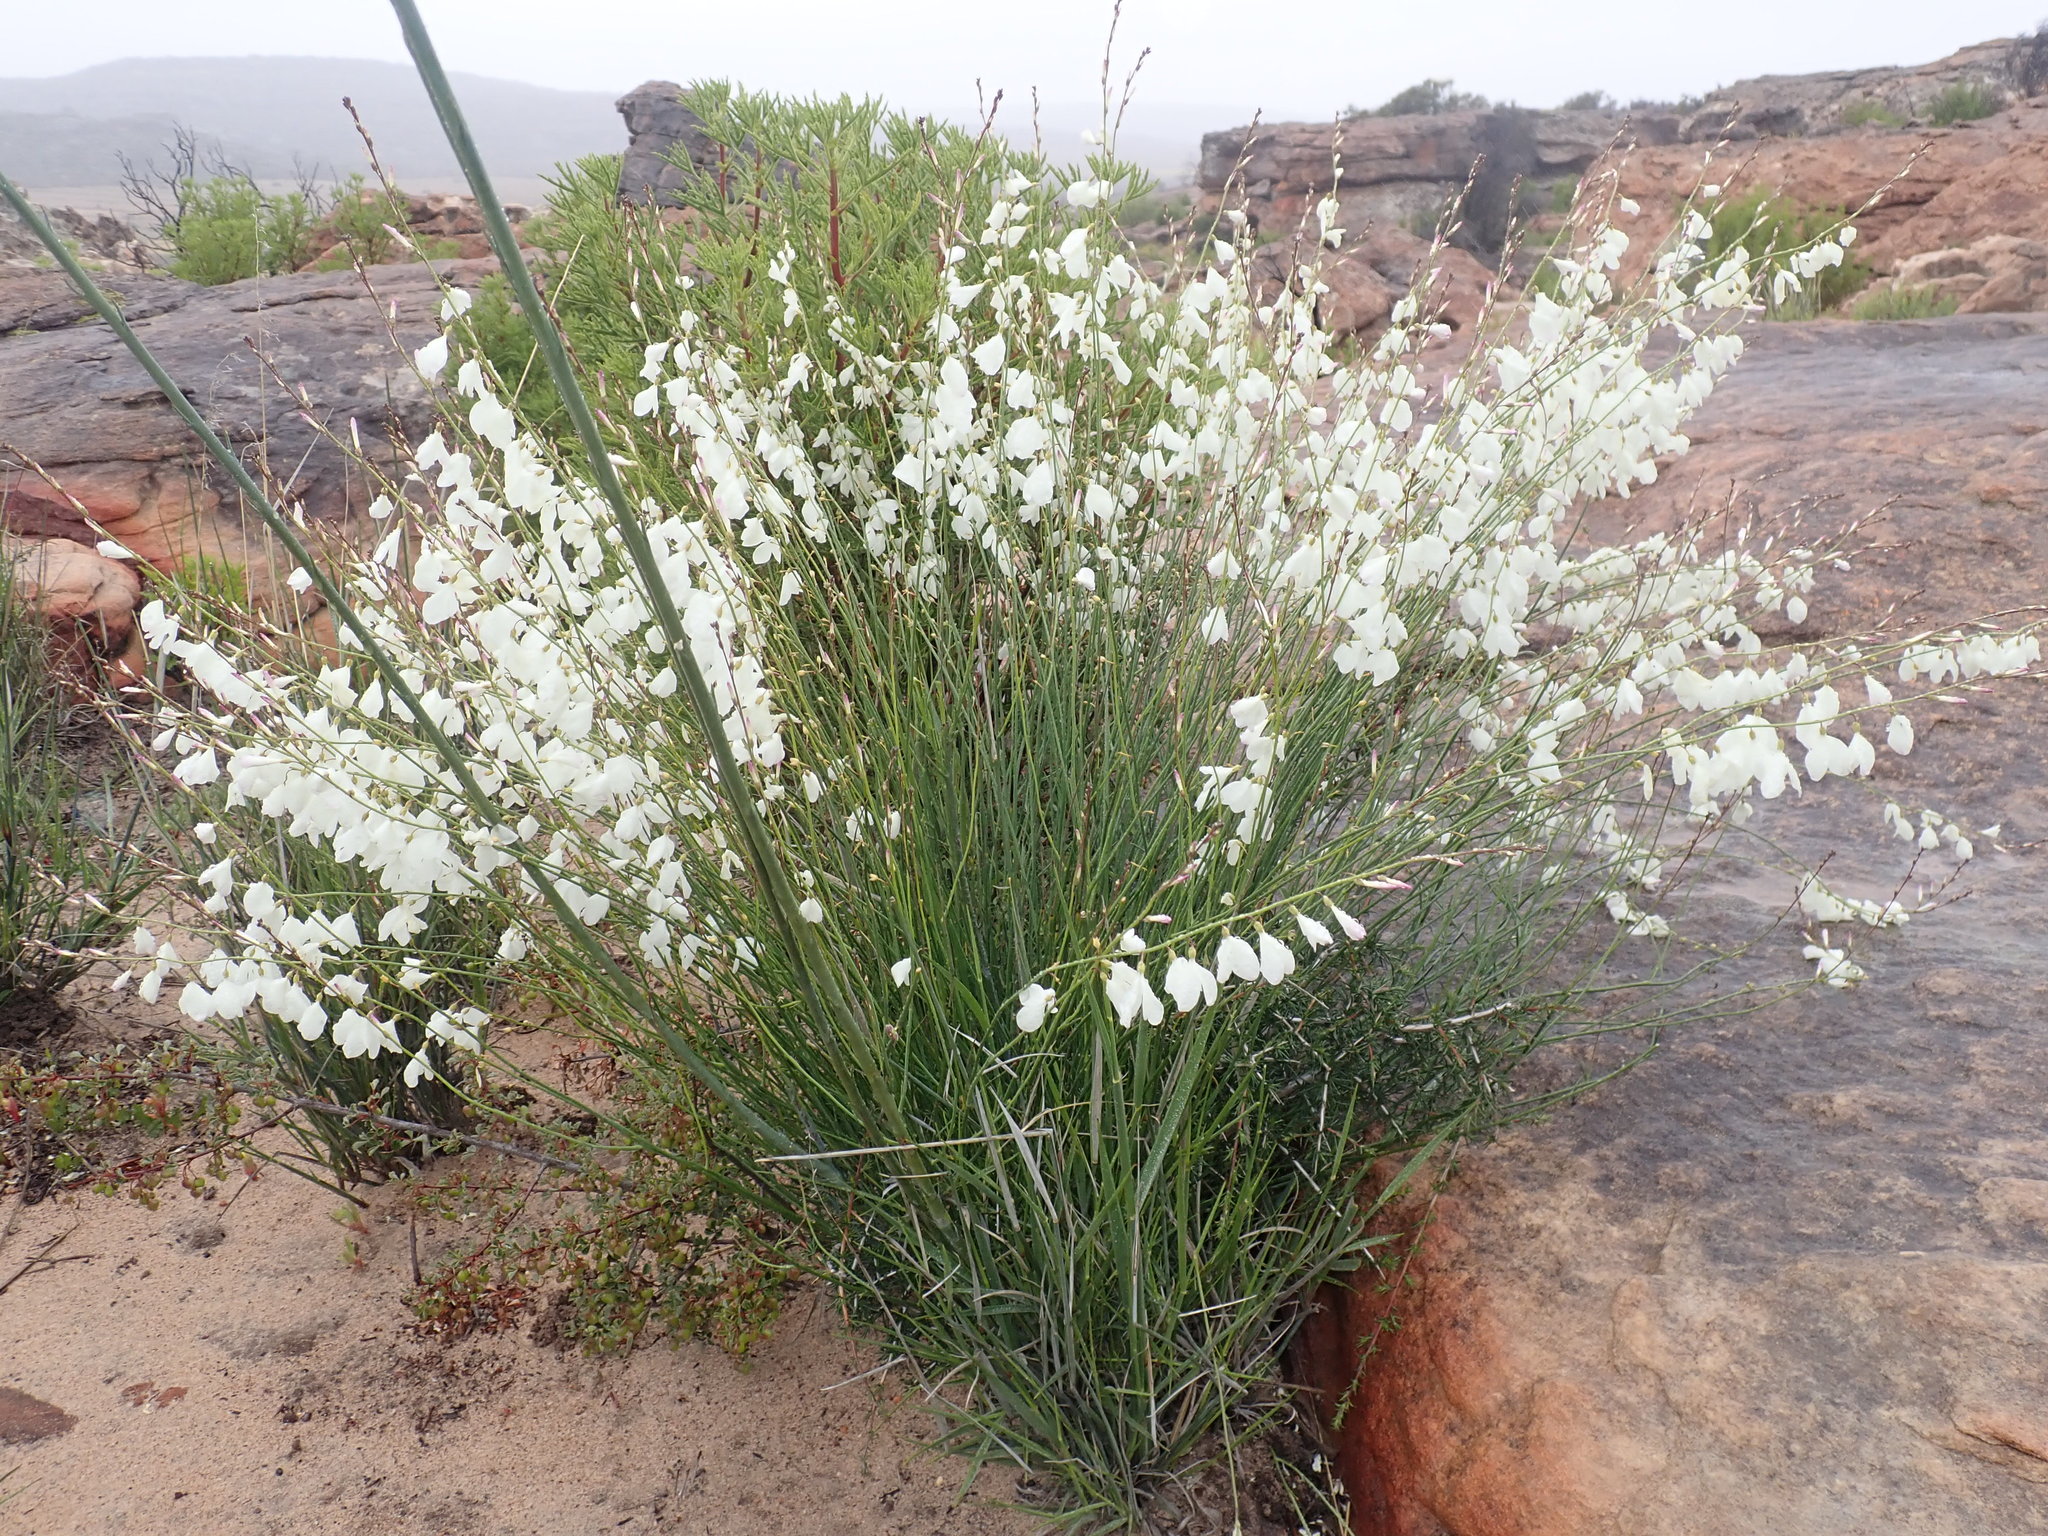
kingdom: Plantae
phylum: Tracheophyta
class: Magnoliopsida
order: Brassicales
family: Brassicaceae
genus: Heliophila
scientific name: Heliophila juncea
